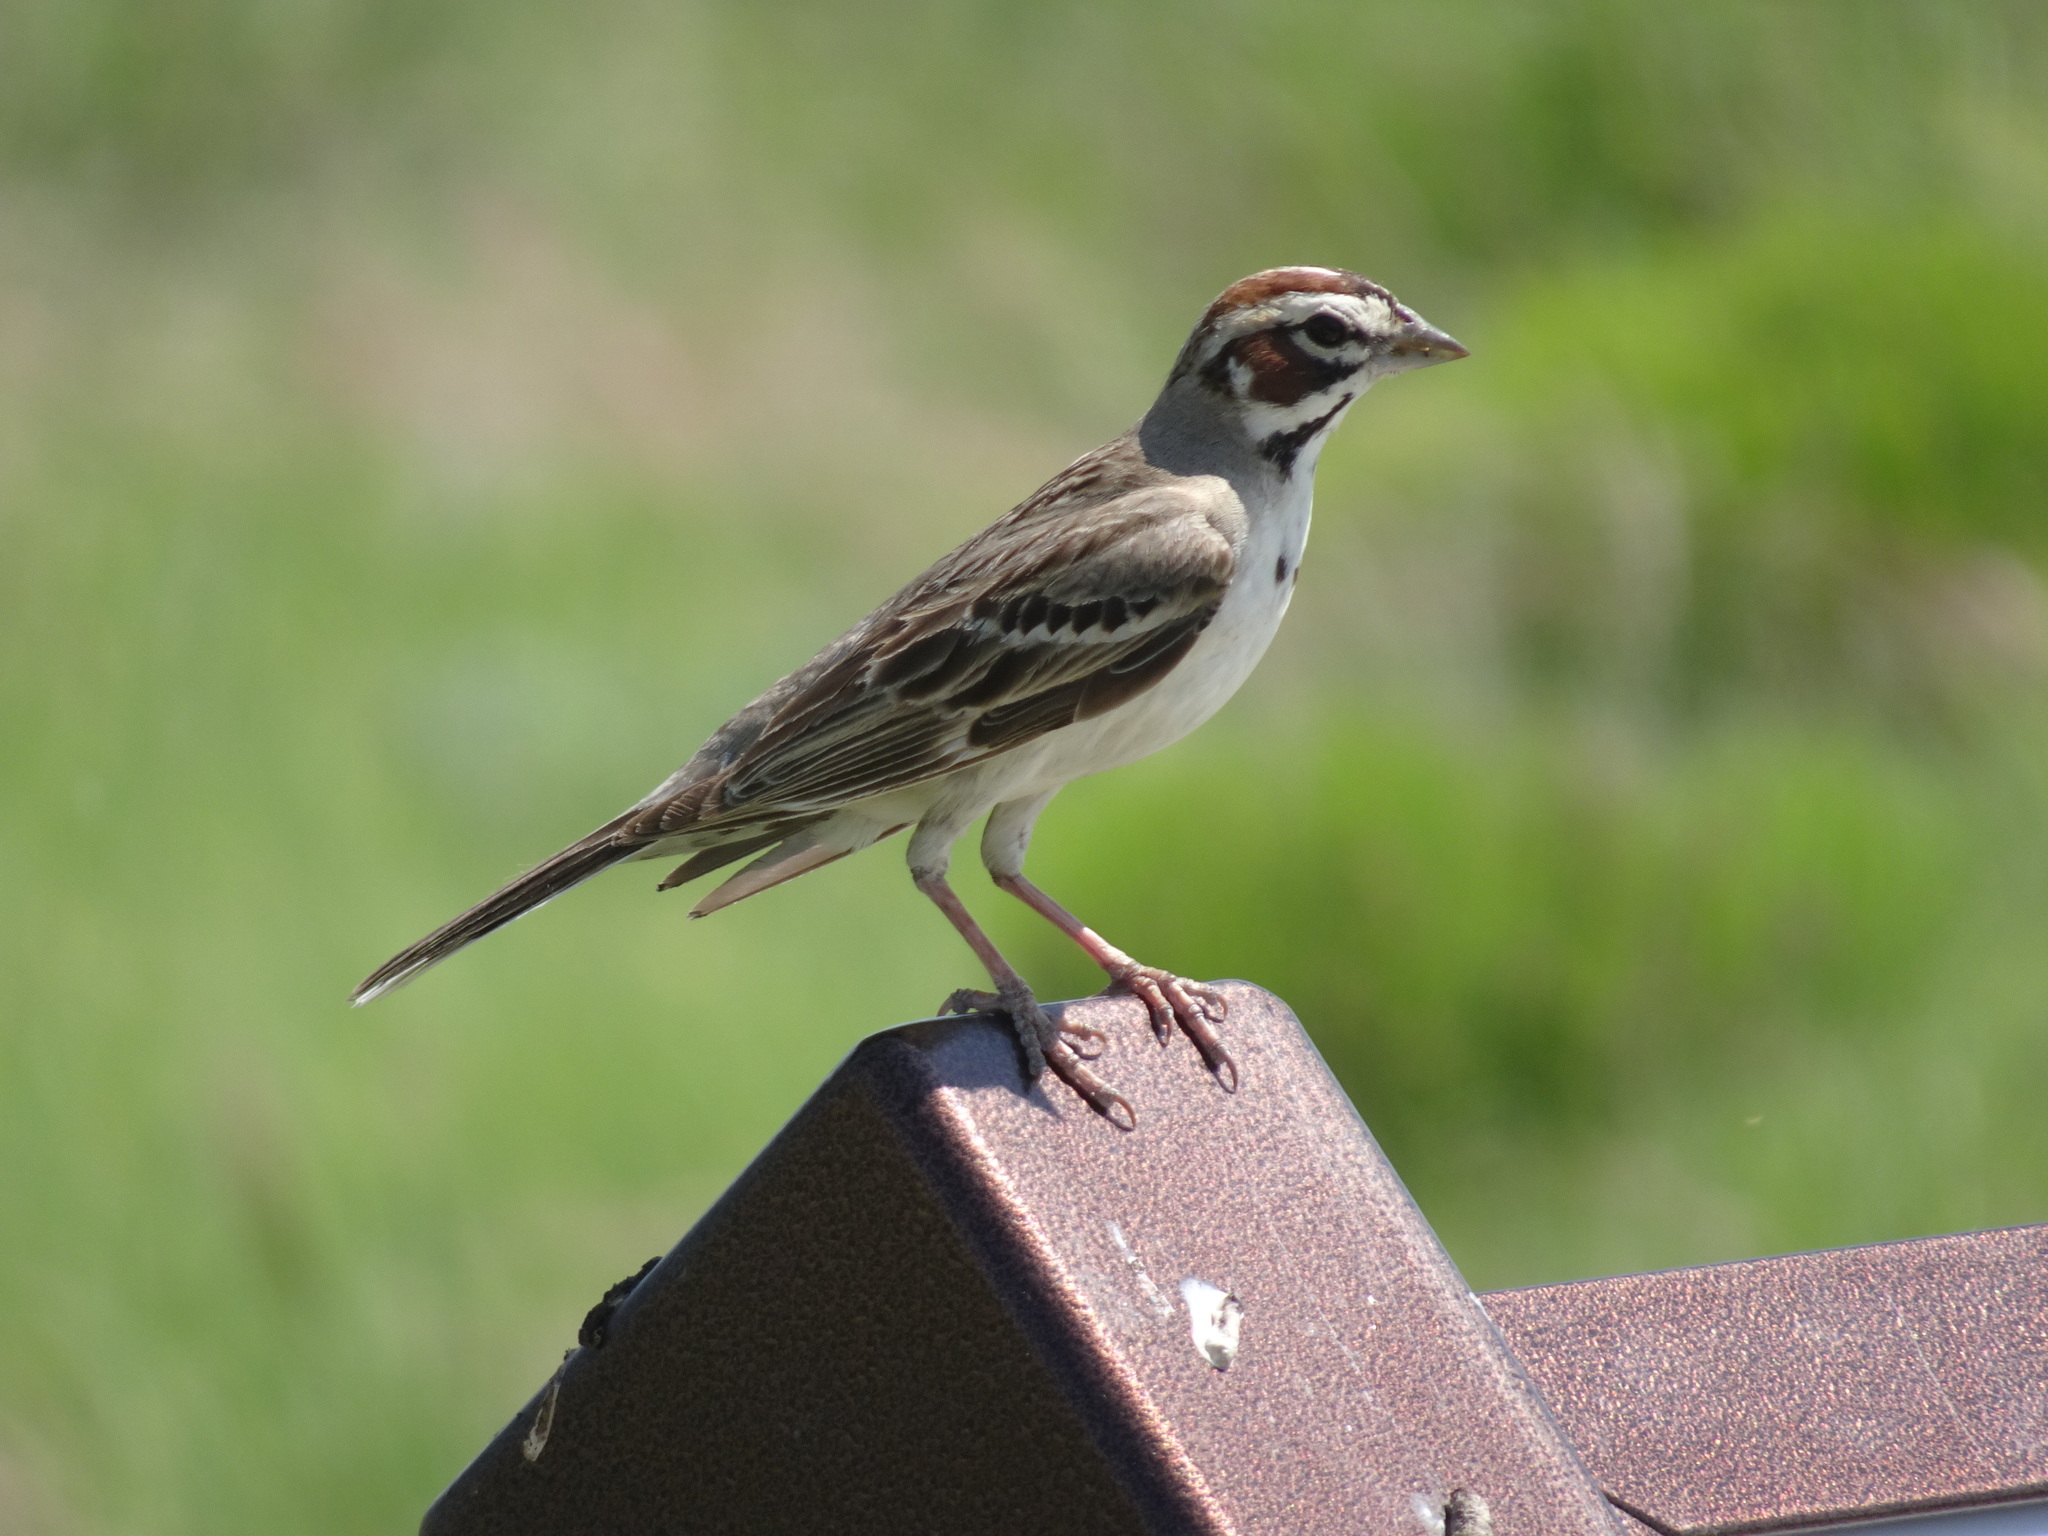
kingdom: Animalia
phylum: Chordata
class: Aves
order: Passeriformes
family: Passerellidae
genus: Chondestes
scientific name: Chondestes grammacus
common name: Lark sparrow
